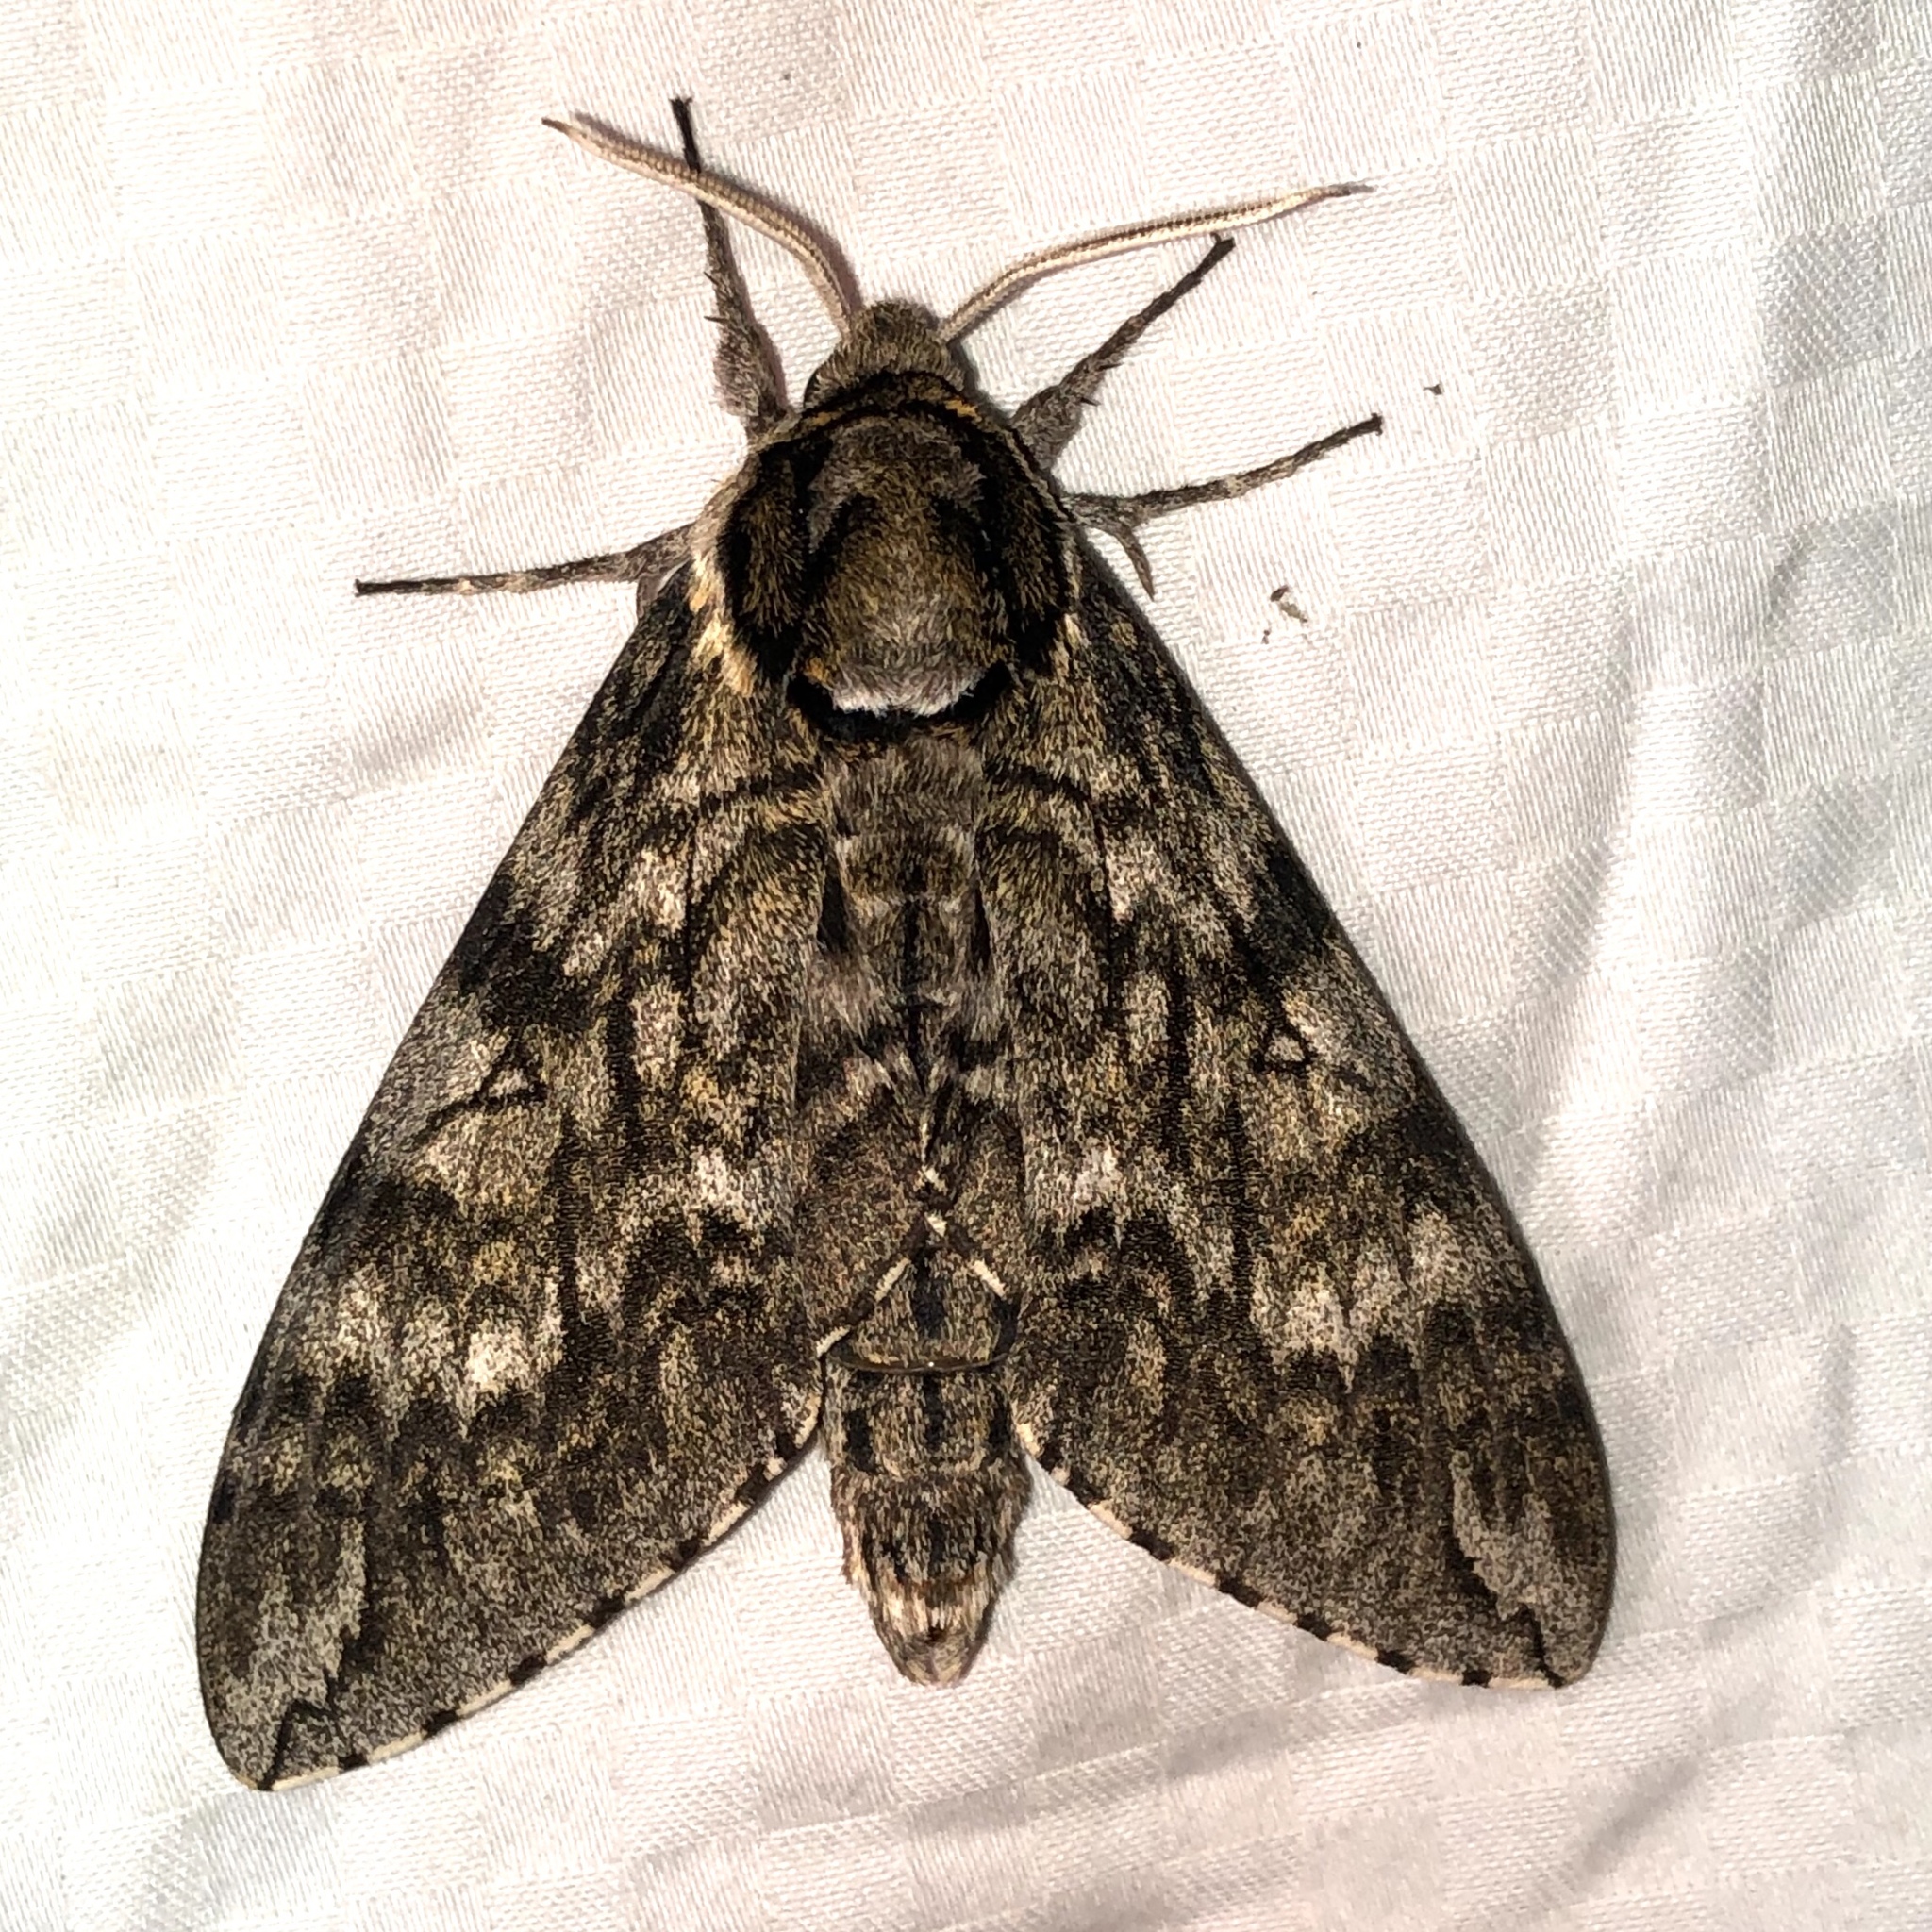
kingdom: Animalia
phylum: Arthropoda
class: Insecta
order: Lepidoptera
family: Sphingidae
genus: Ceratomia
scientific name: Ceratomia undulosa
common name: Waved sphinx
